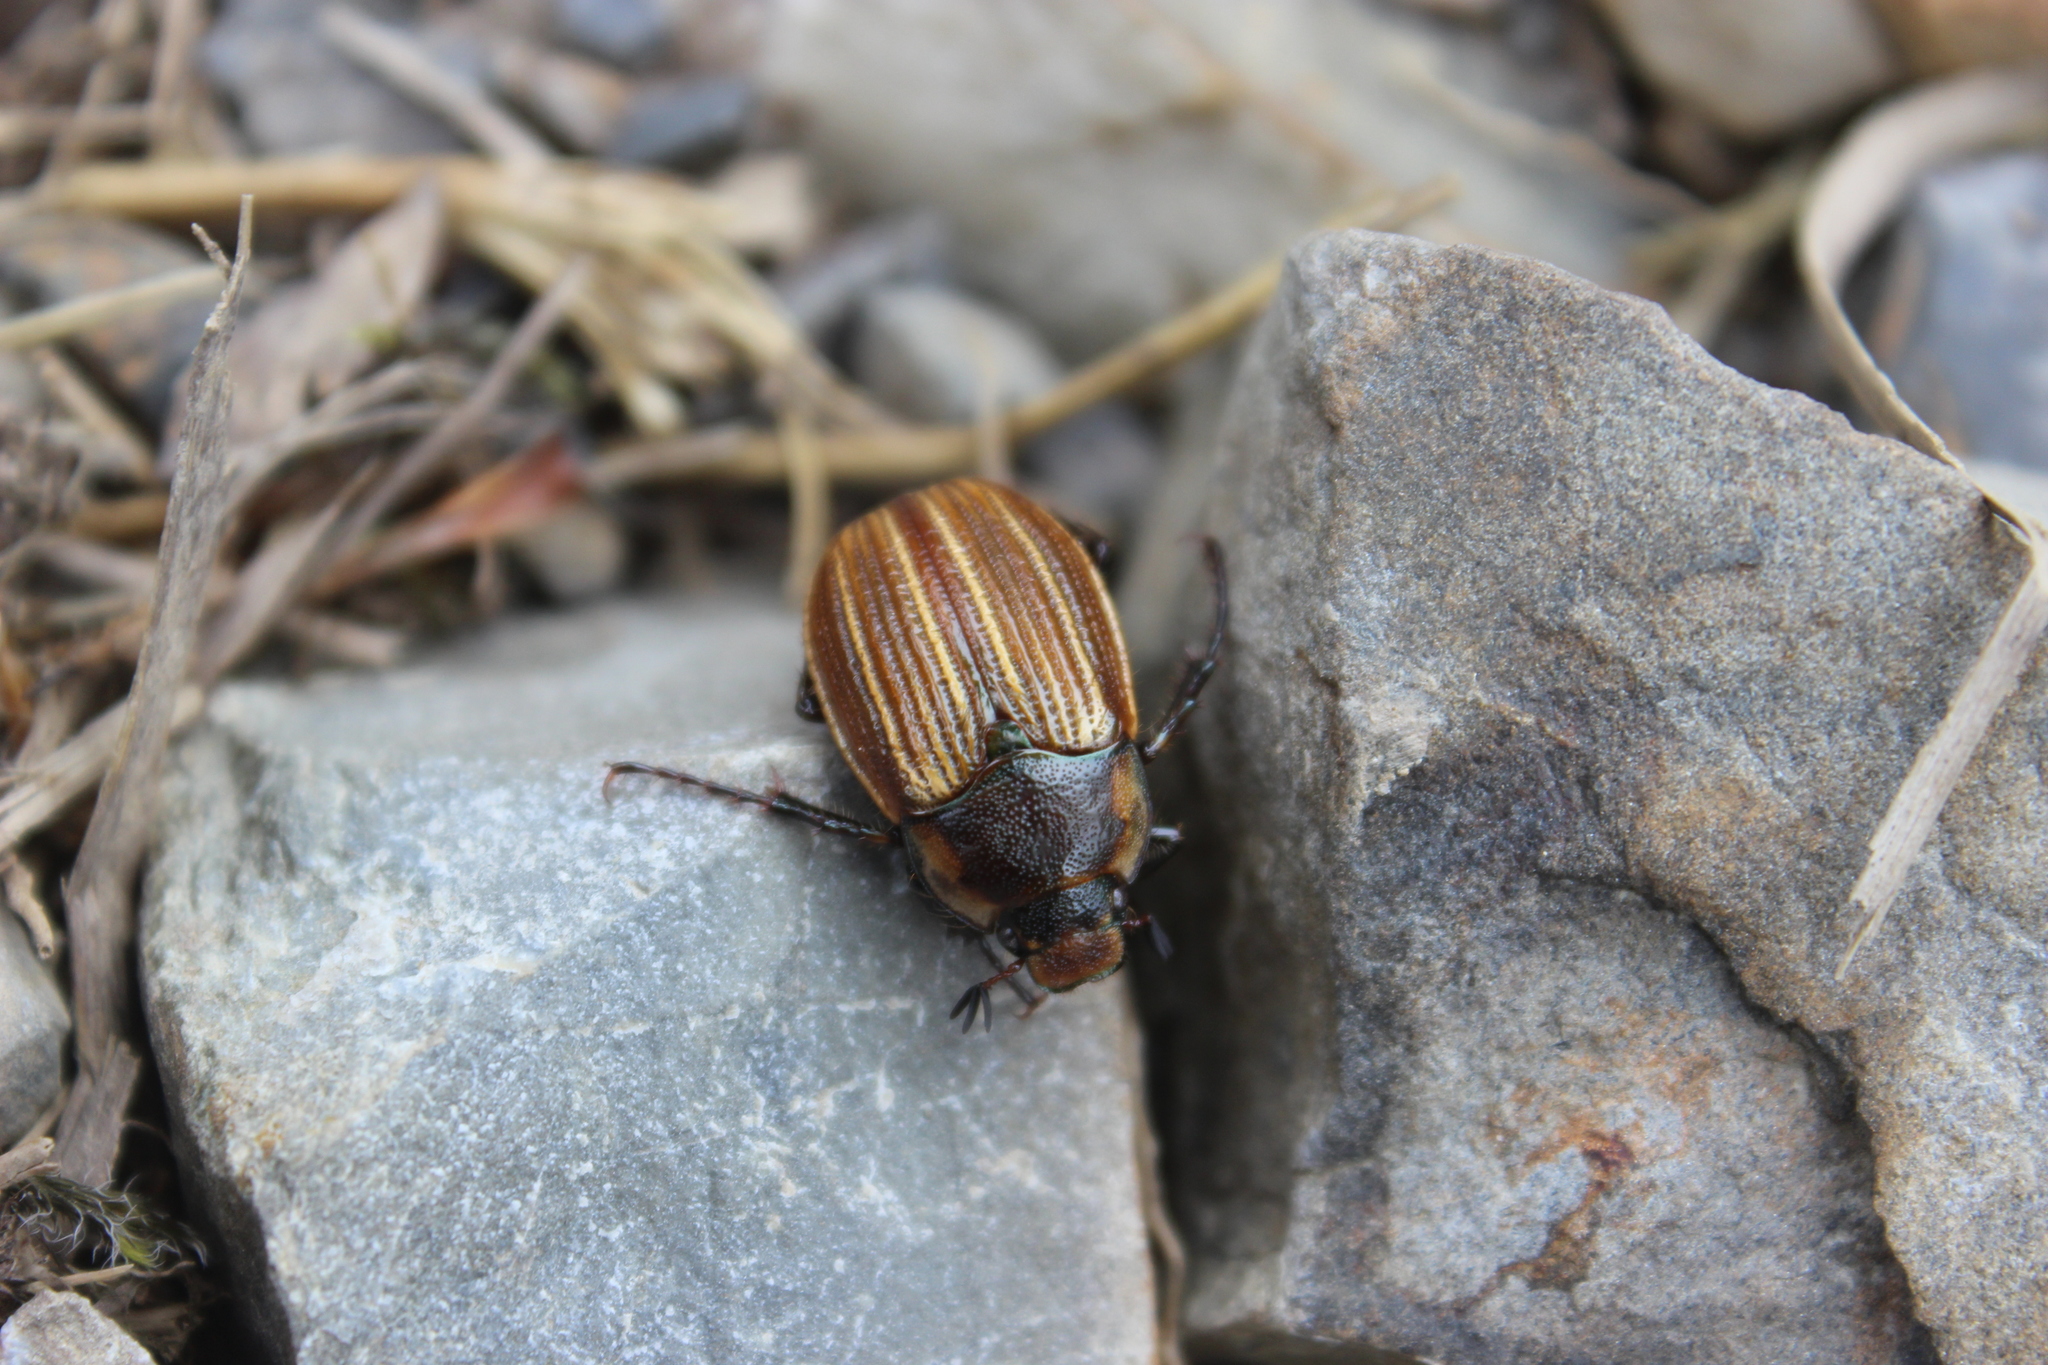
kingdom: Animalia
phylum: Arthropoda
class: Insecta
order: Coleoptera
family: Scarabaeidae
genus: Stethaspis
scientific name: Stethaspis simmondsi
